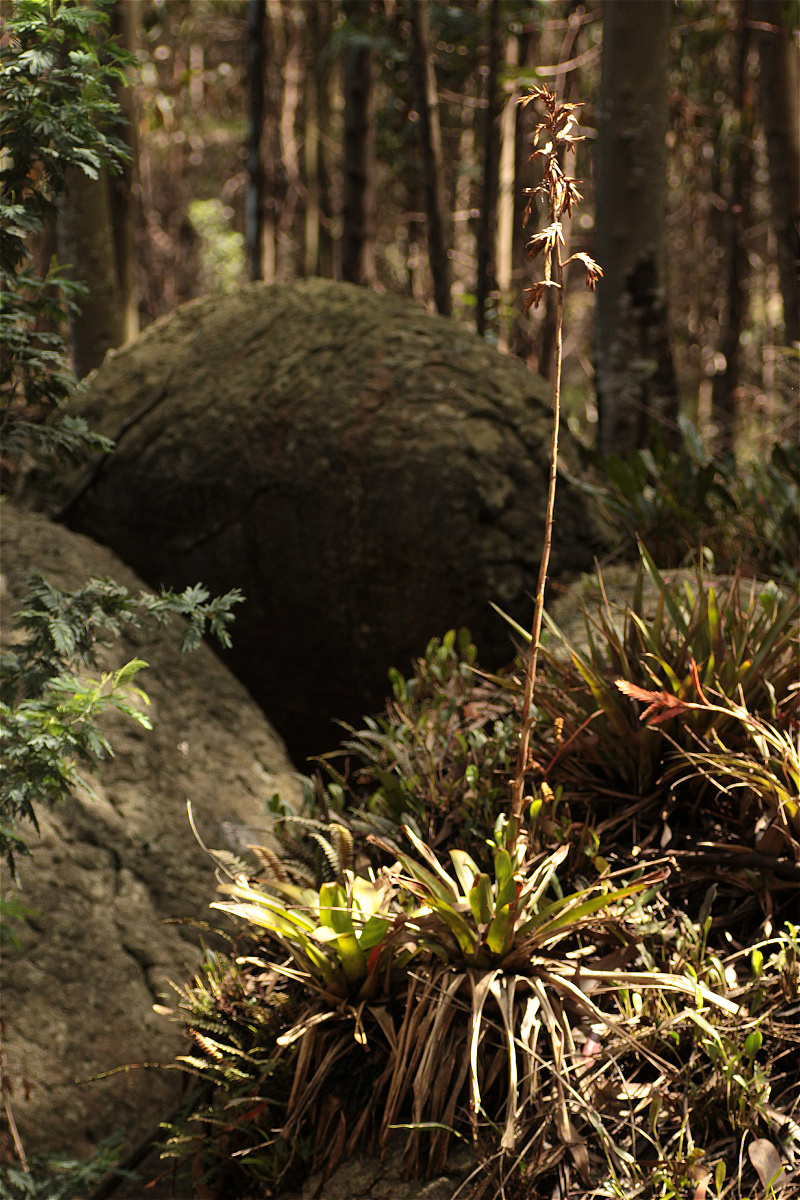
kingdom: Plantae
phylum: Tracheophyta
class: Liliopsida
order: Poales
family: Bromeliaceae
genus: Tillandsia
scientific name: Tillandsia denudata
